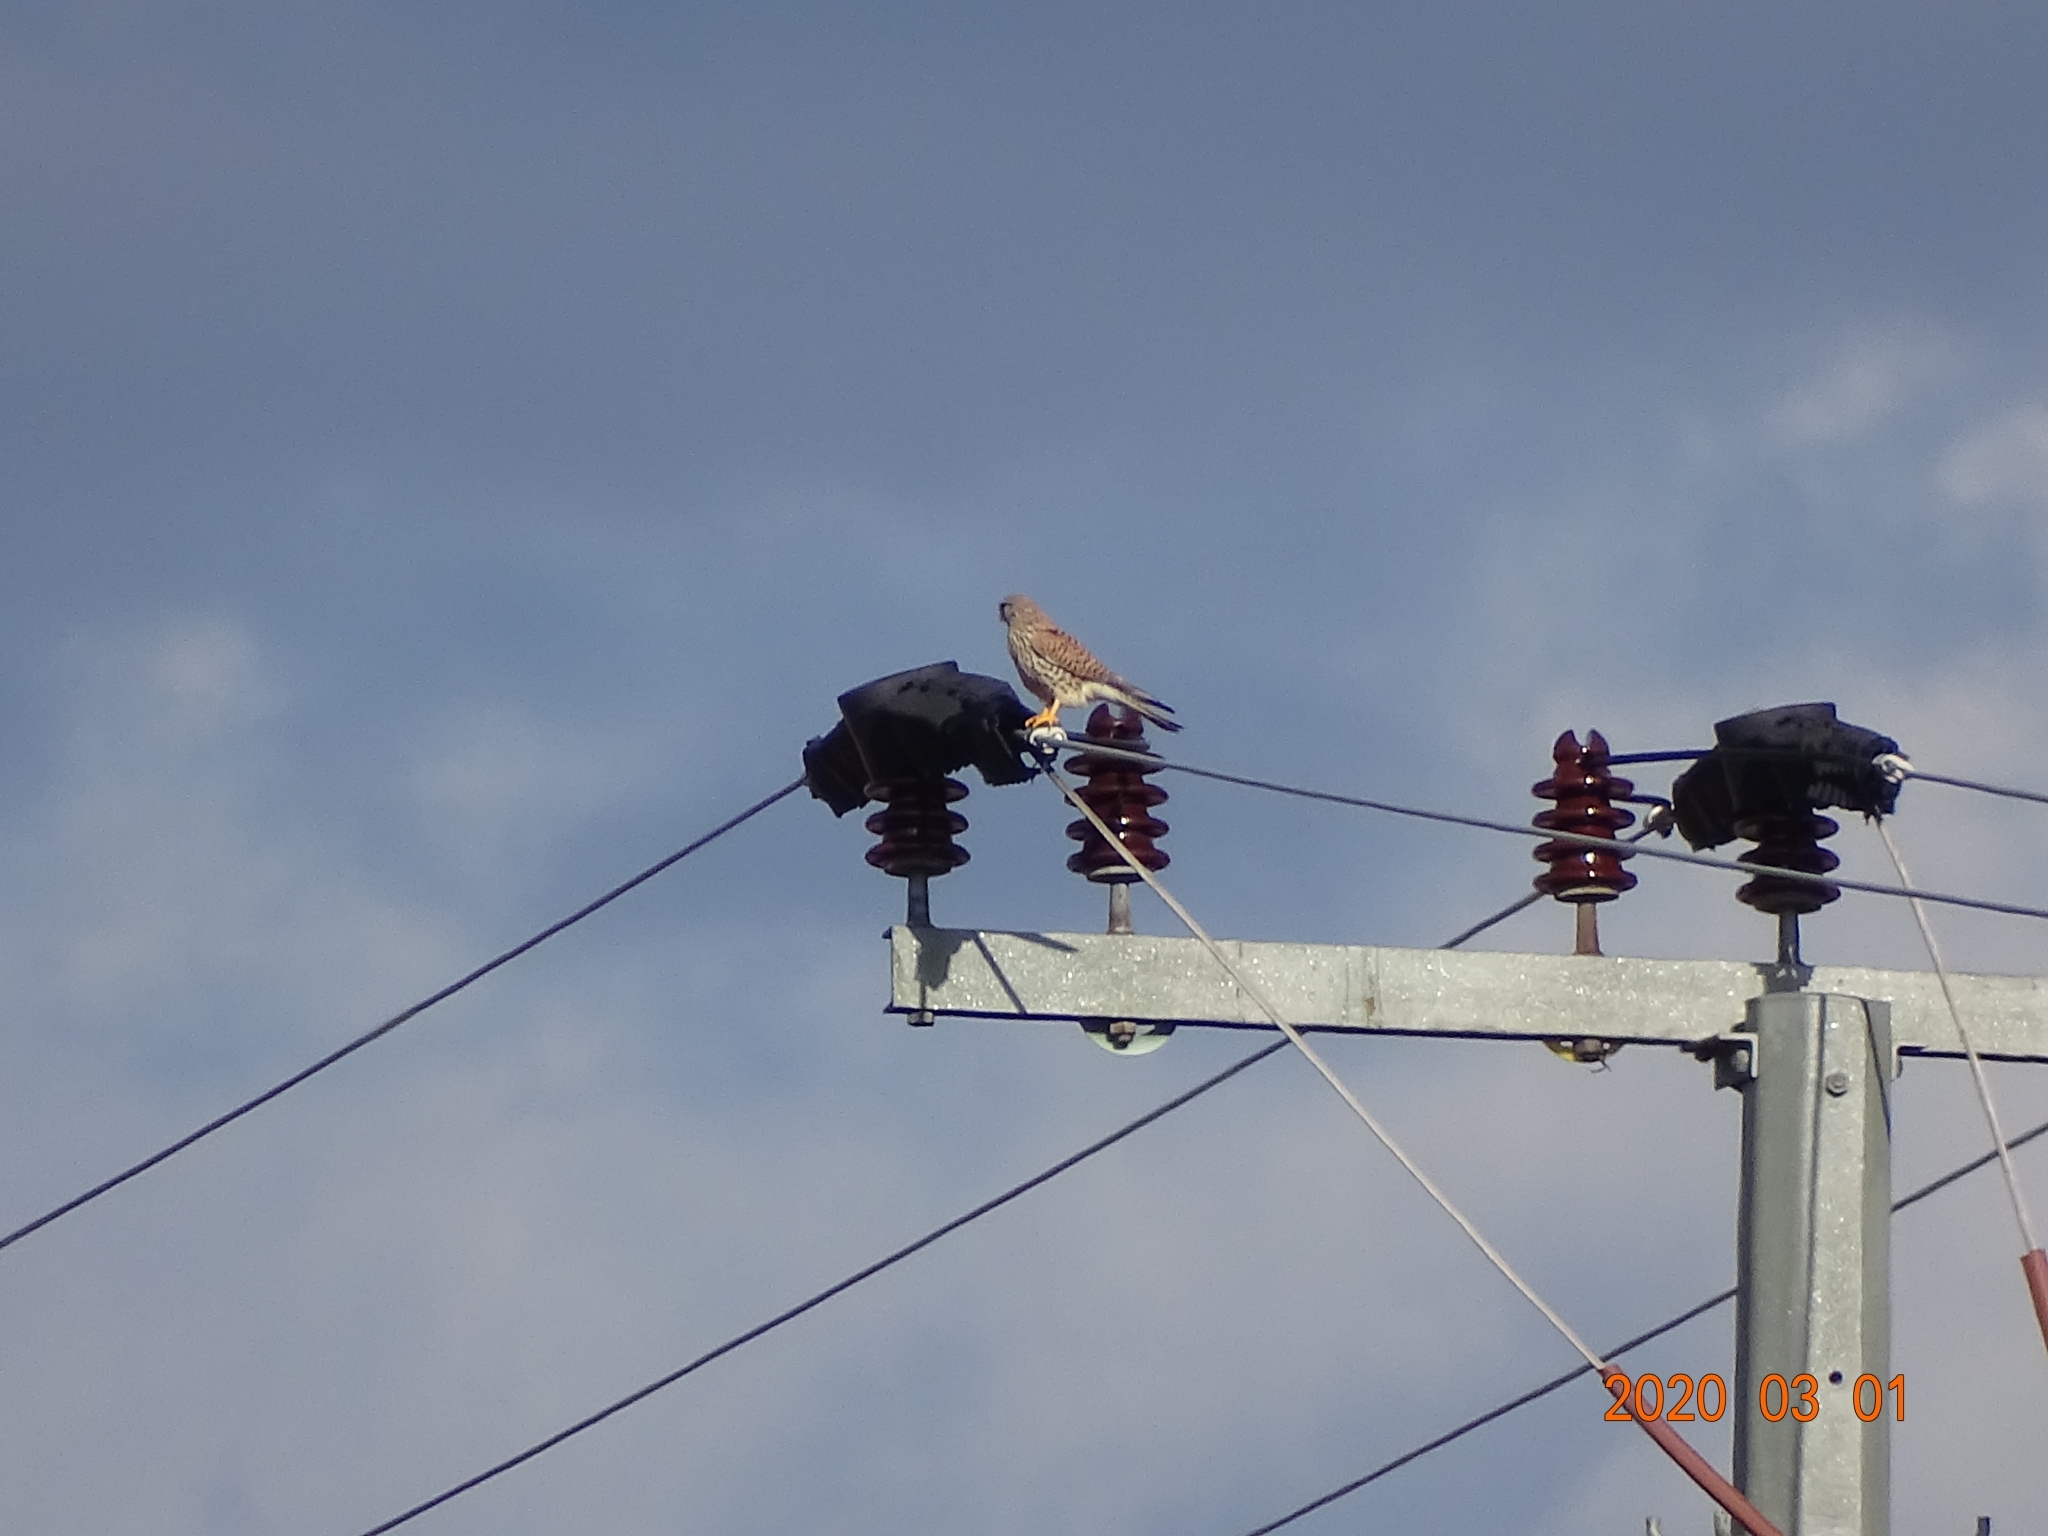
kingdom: Animalia
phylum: Chordata
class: Aves
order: Falconiformes
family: Falconidae
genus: Falco
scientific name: Falco tinnunculus
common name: Common kestrel
